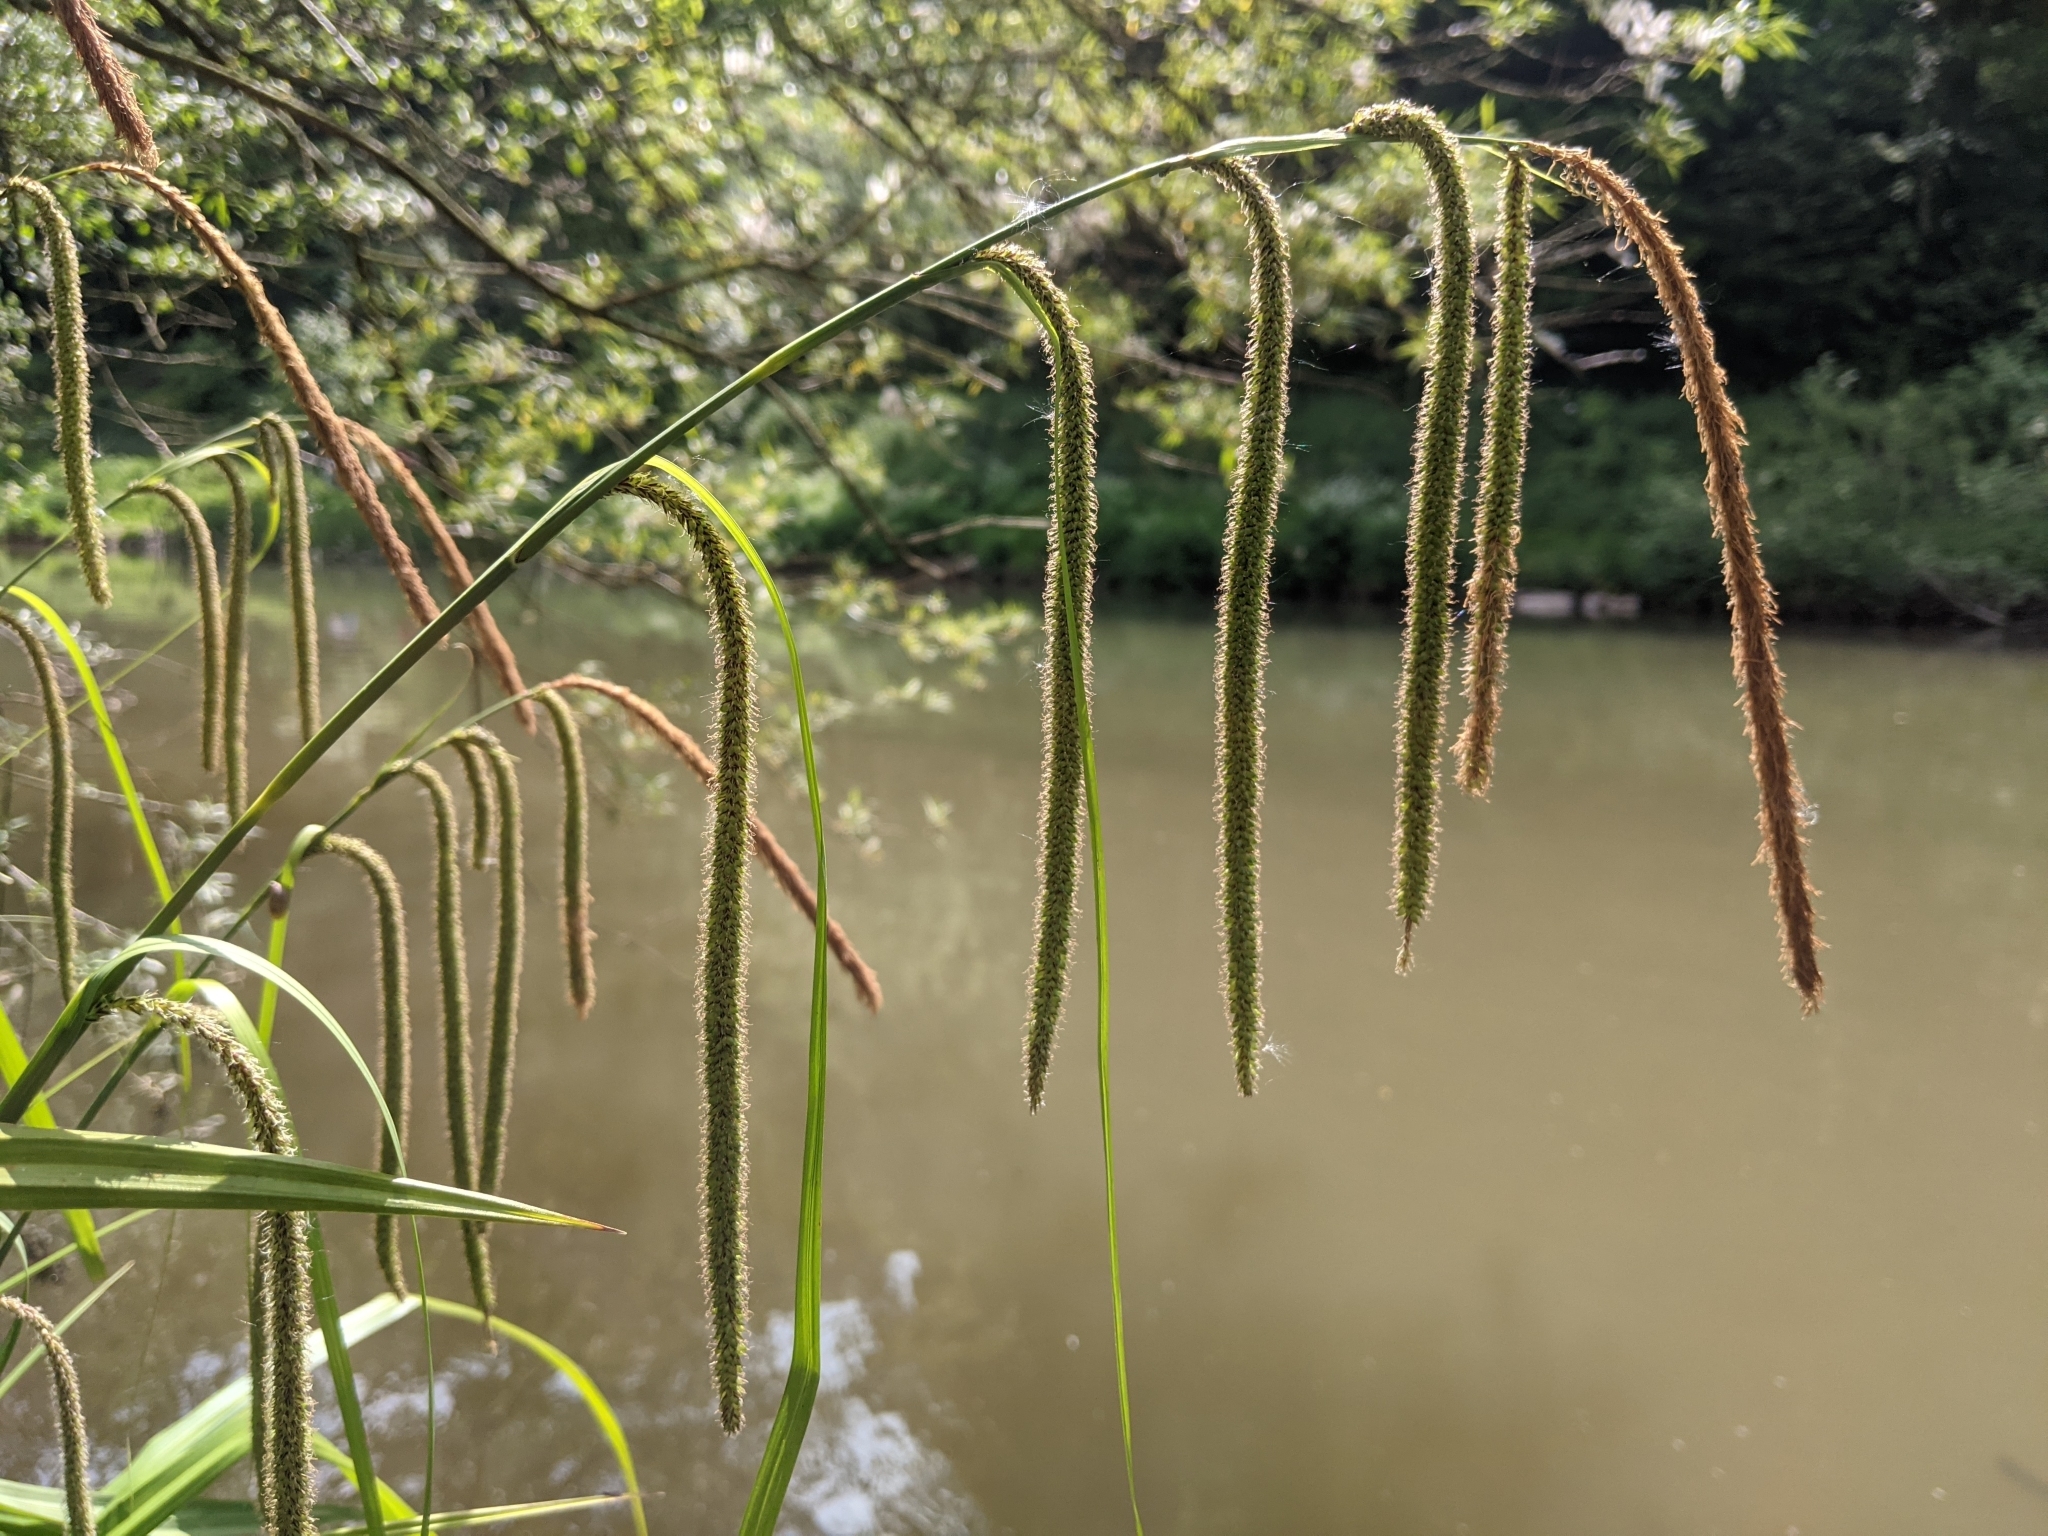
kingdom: Plantae
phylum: Tracheophyta
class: Liliopsida
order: Poales
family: Cyperaceae
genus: Carex
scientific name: Carex pendula
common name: Pendulous sedge
